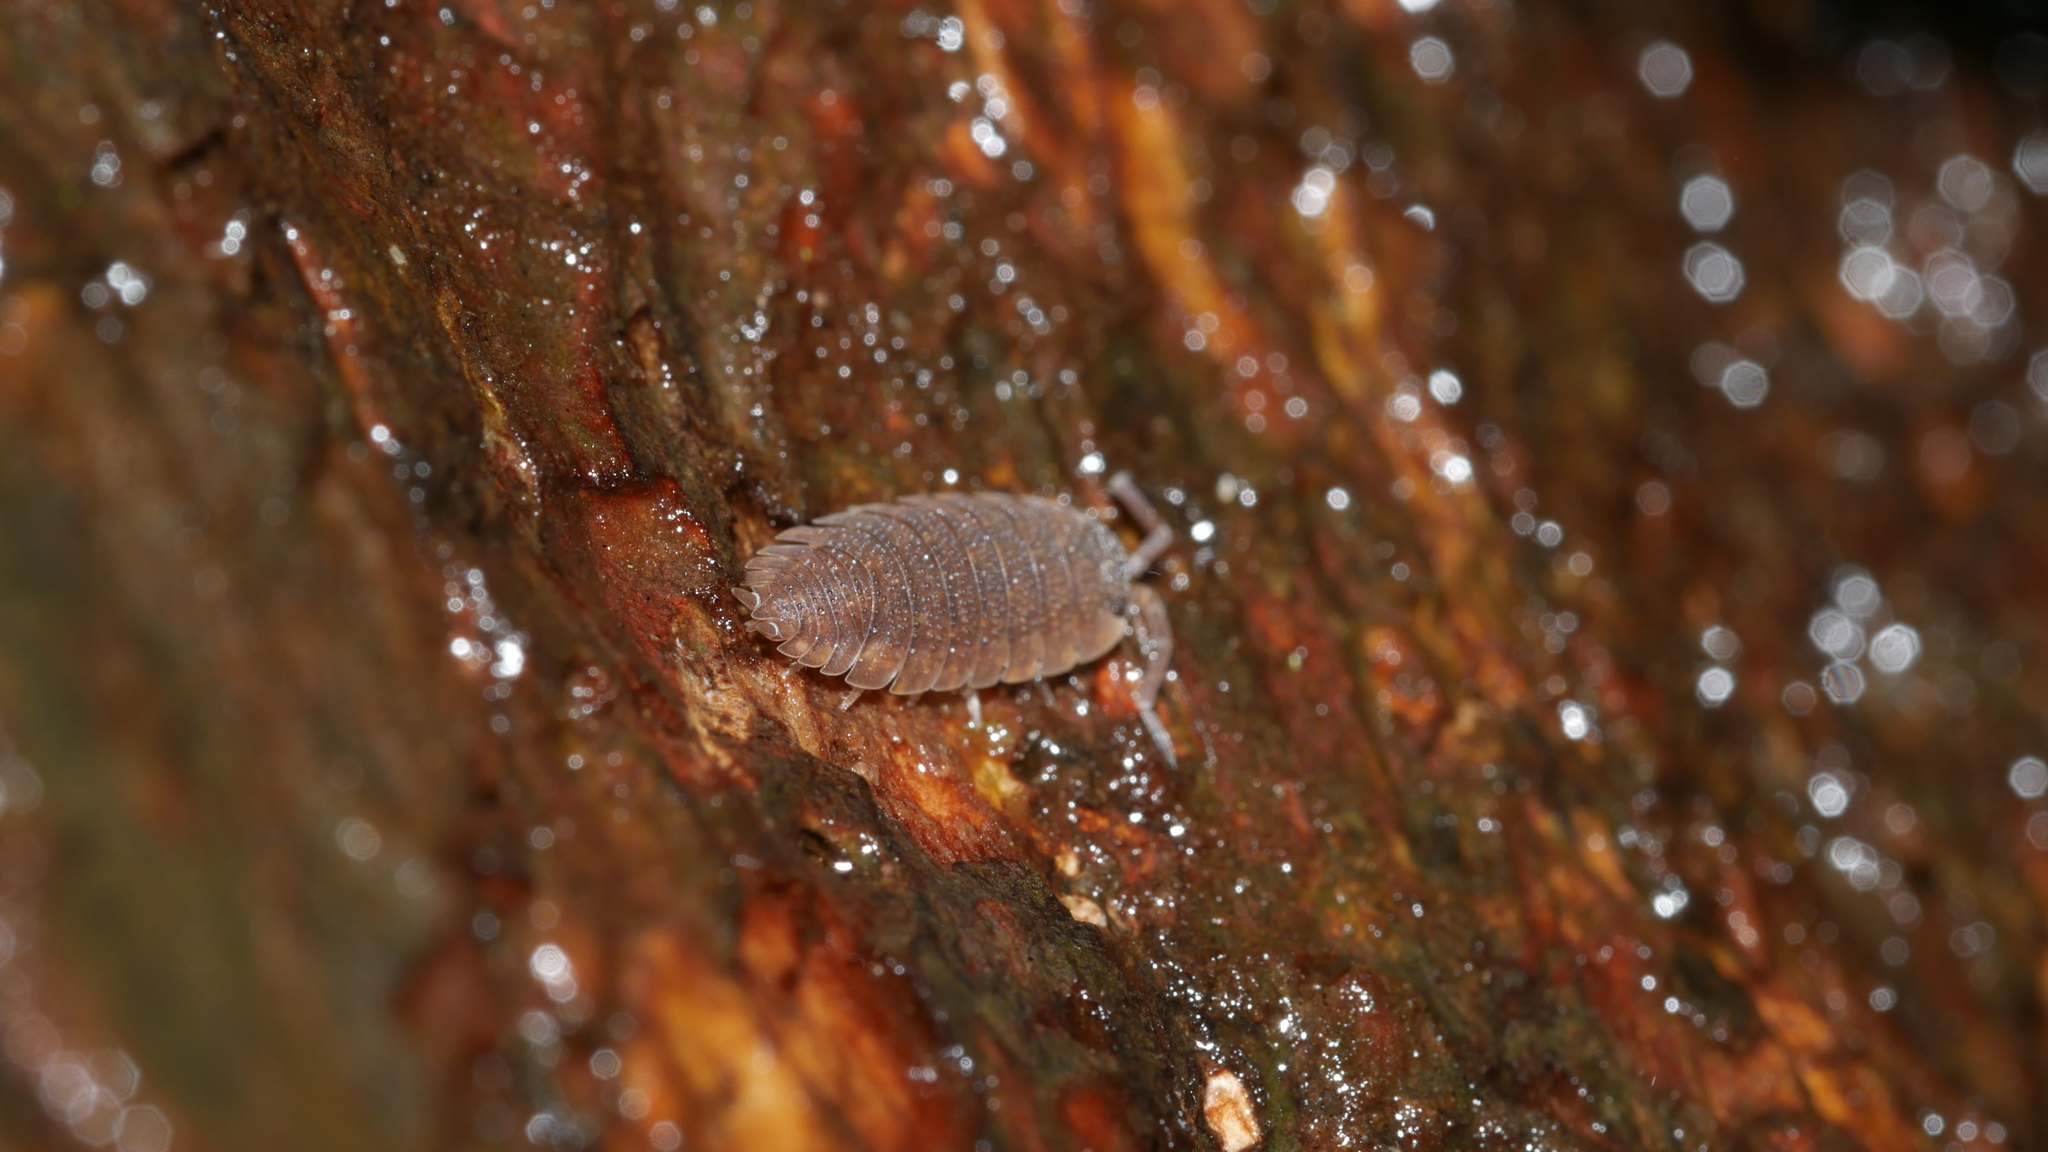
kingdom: Animalia
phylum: Arthropoda
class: Malacostraca
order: Isopoda
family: Porcellionidae
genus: Porcellio
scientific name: Porcellio scaber
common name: Common rough woodlouse
